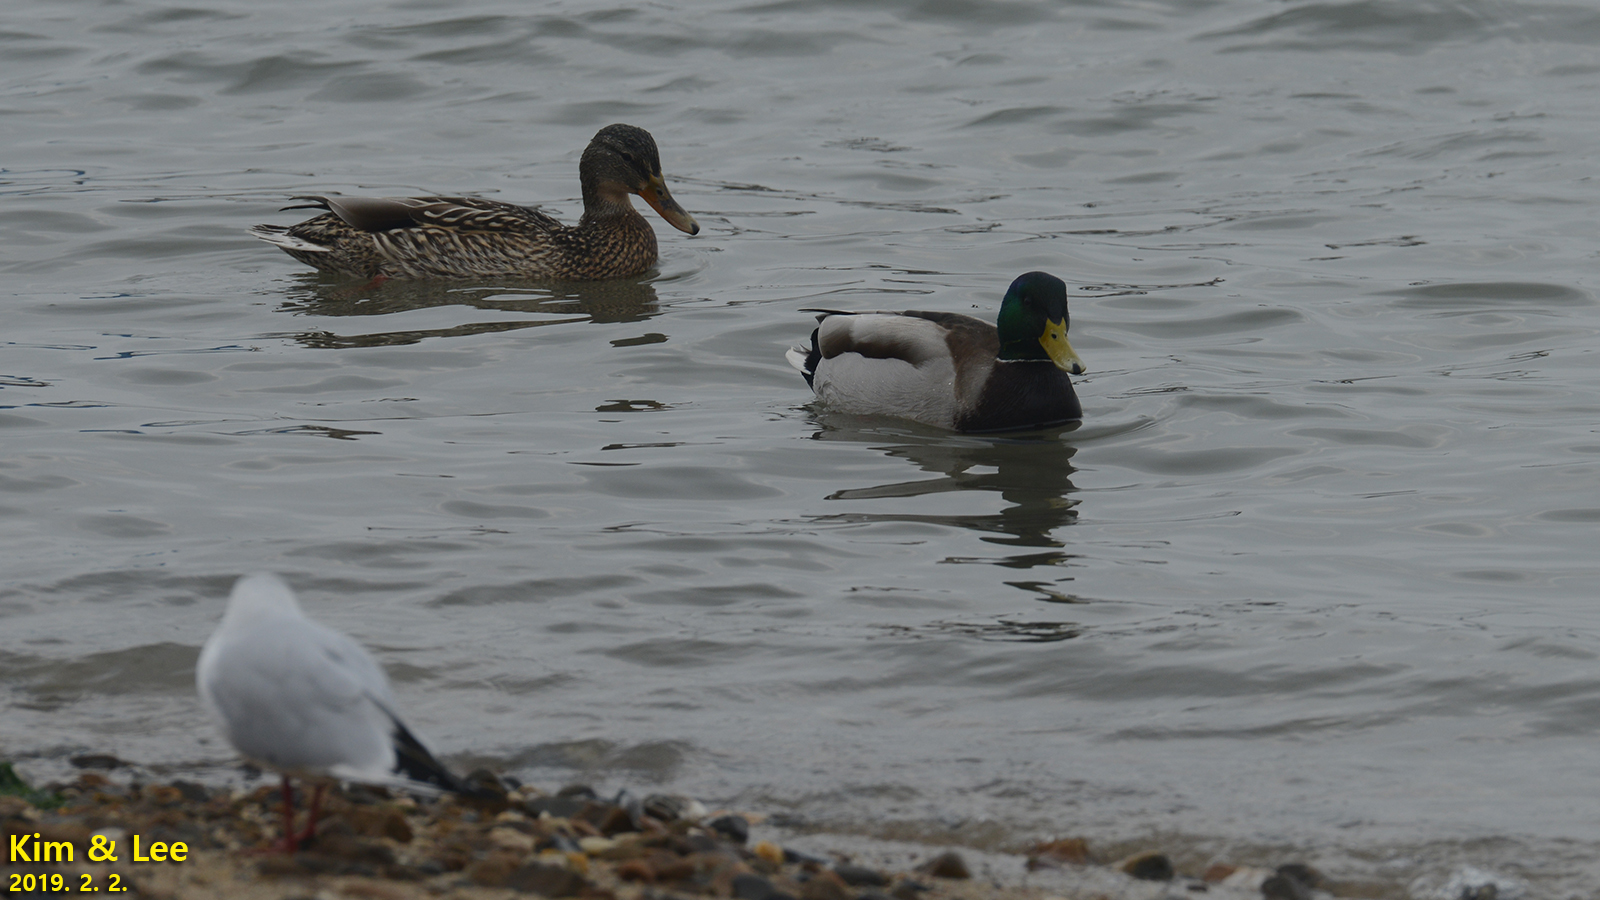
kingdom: Animalia
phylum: Chordata
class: Aves
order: Anseriformes
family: Anatidae
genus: Anas
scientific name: Anas platyrhynchos
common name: Mallard
